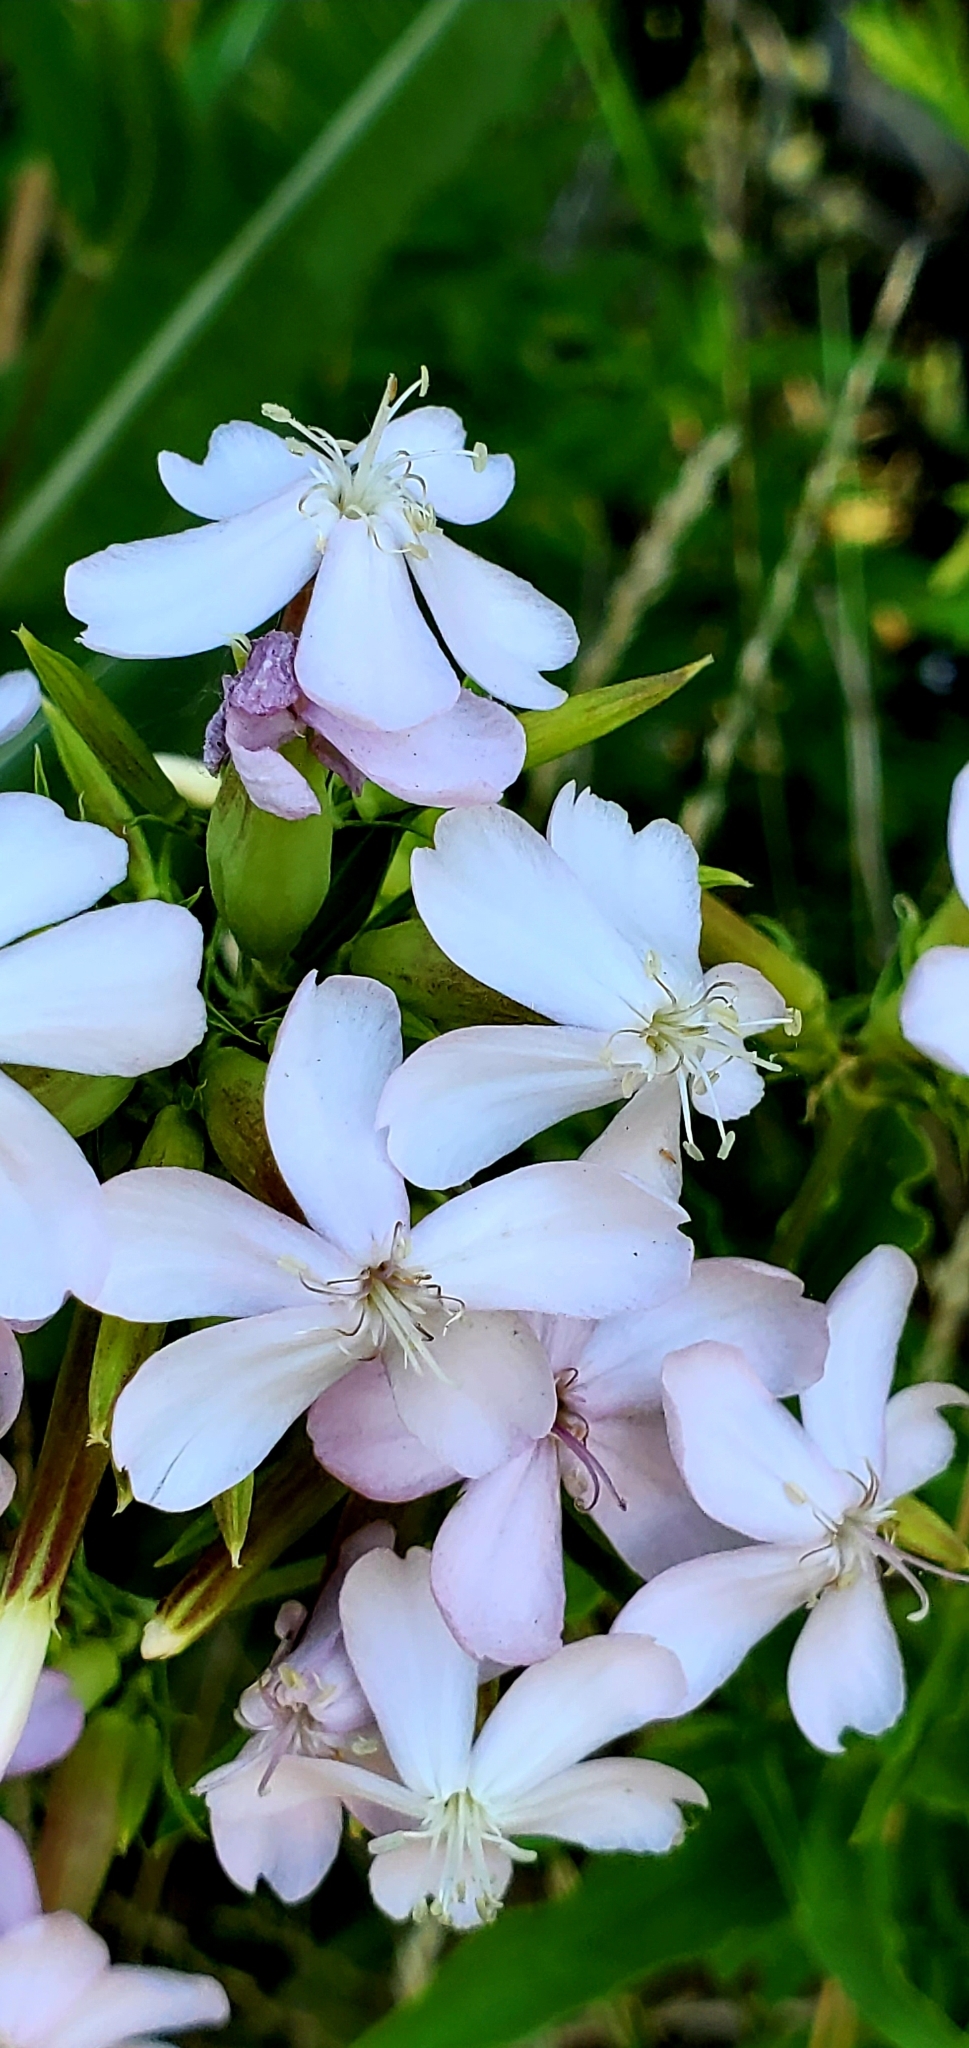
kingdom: Plantae
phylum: Tracheophyta
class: Magnoliopsida
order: Caryophyllales
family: Caryophyllaceae
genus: Saponaria
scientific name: Saponaria officinalis
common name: Soapwort
